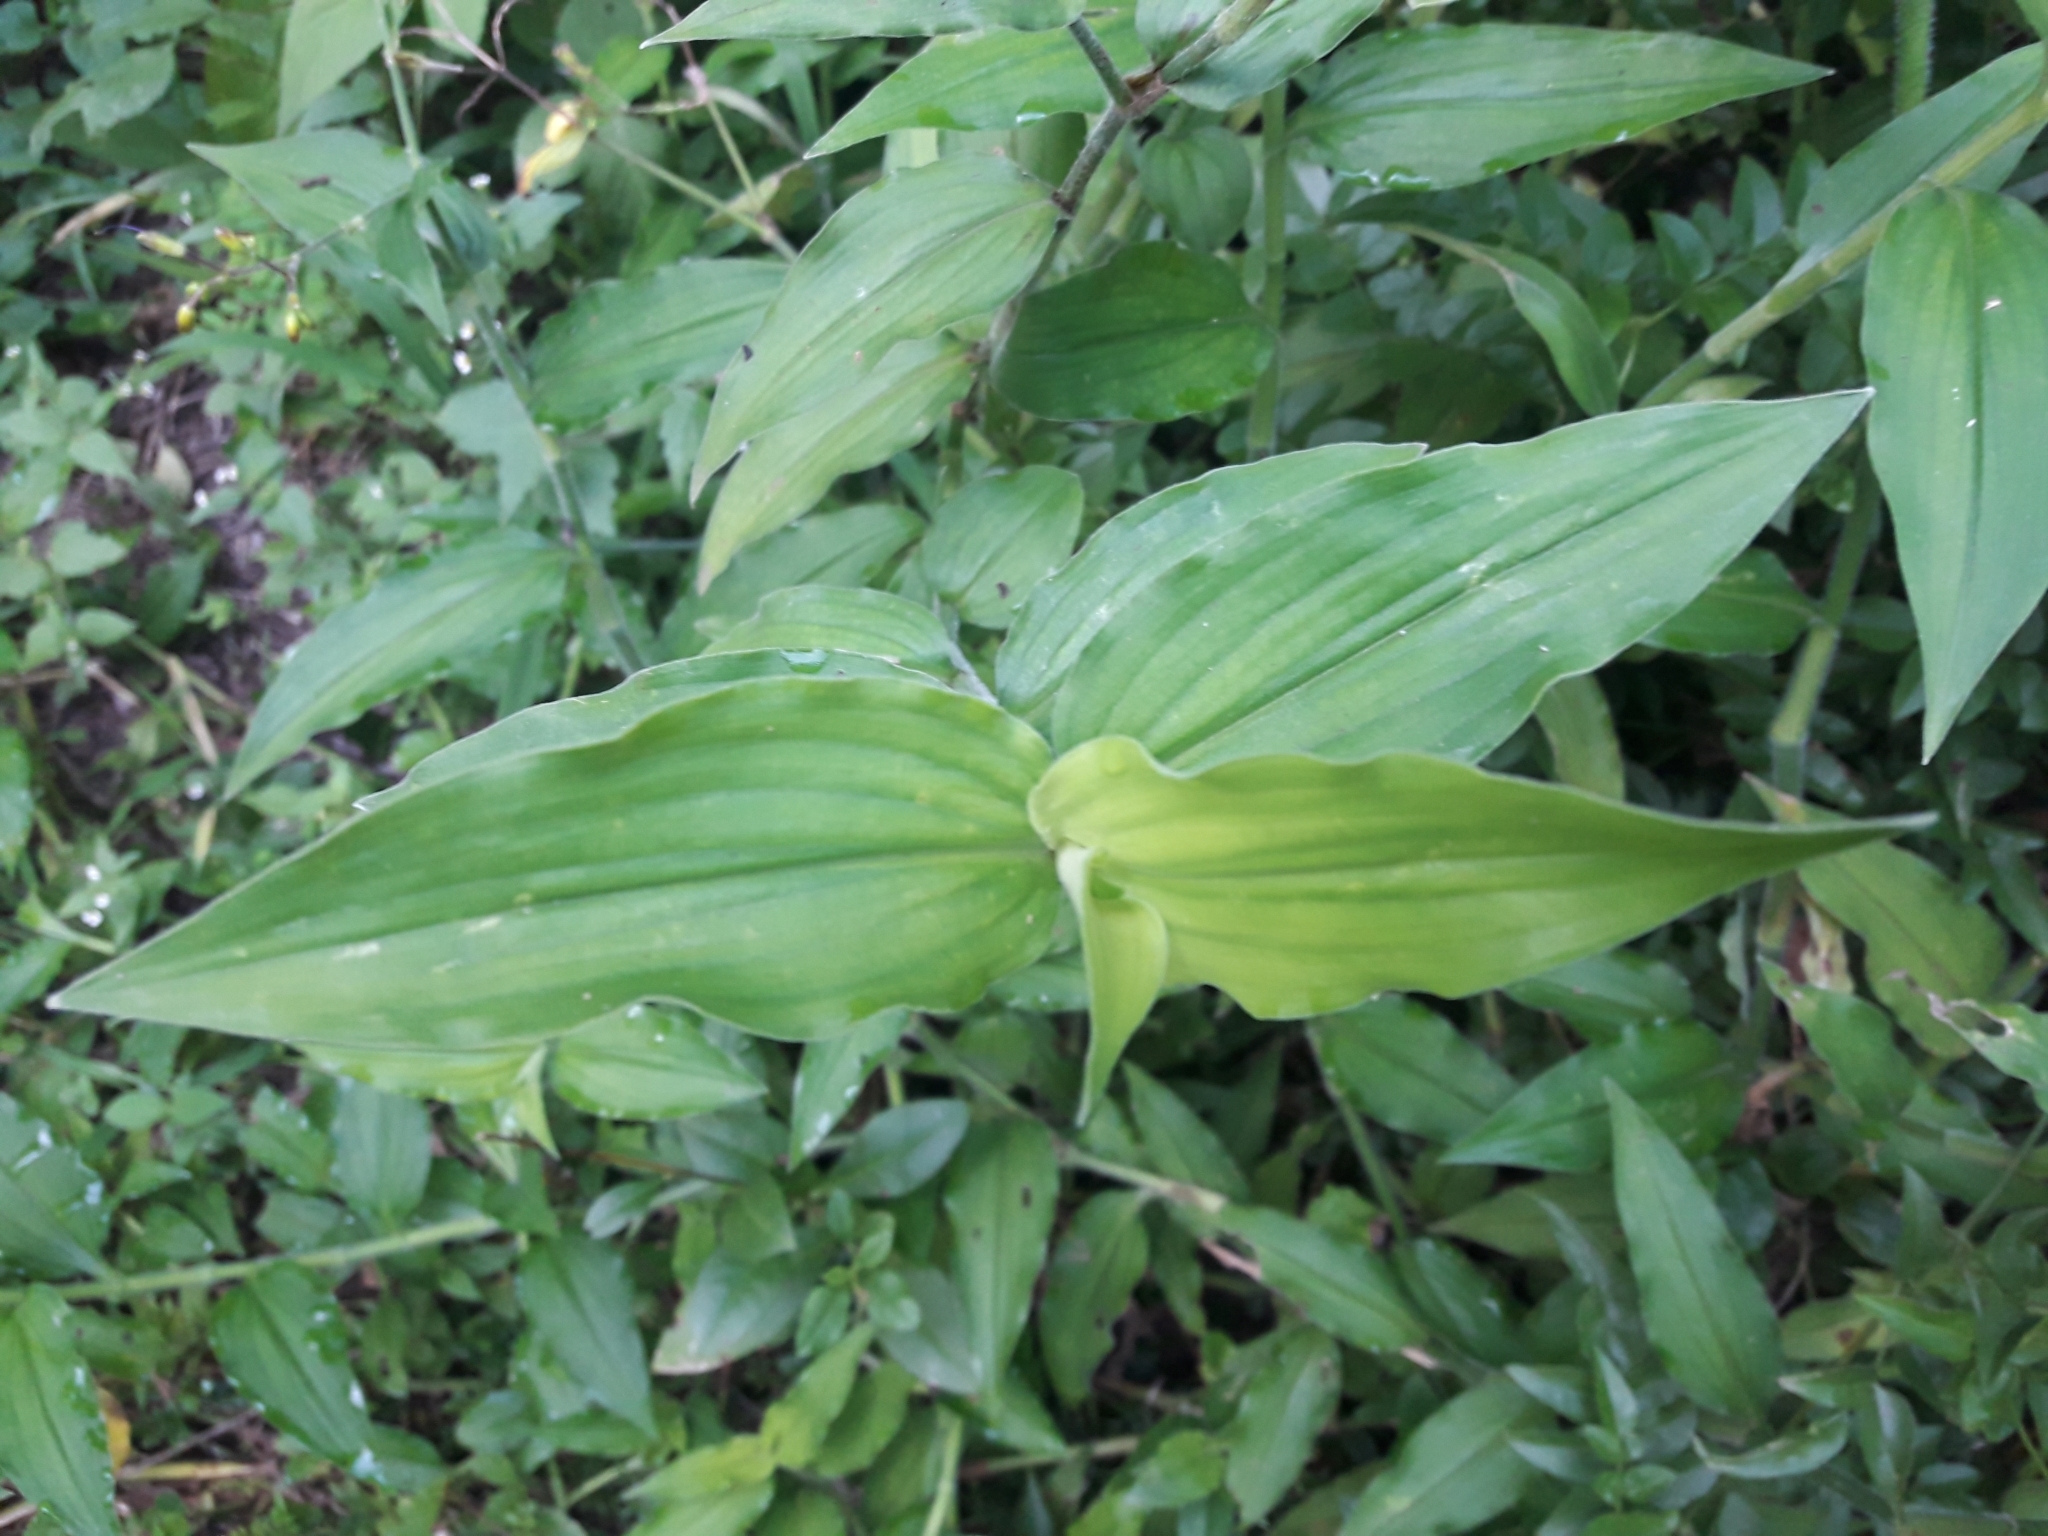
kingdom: Plantae
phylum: Tracheophyta
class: Liliopsida
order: Commelinales
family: Commelinaceae
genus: Aneilema
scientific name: Aneilema aequinoctiale
